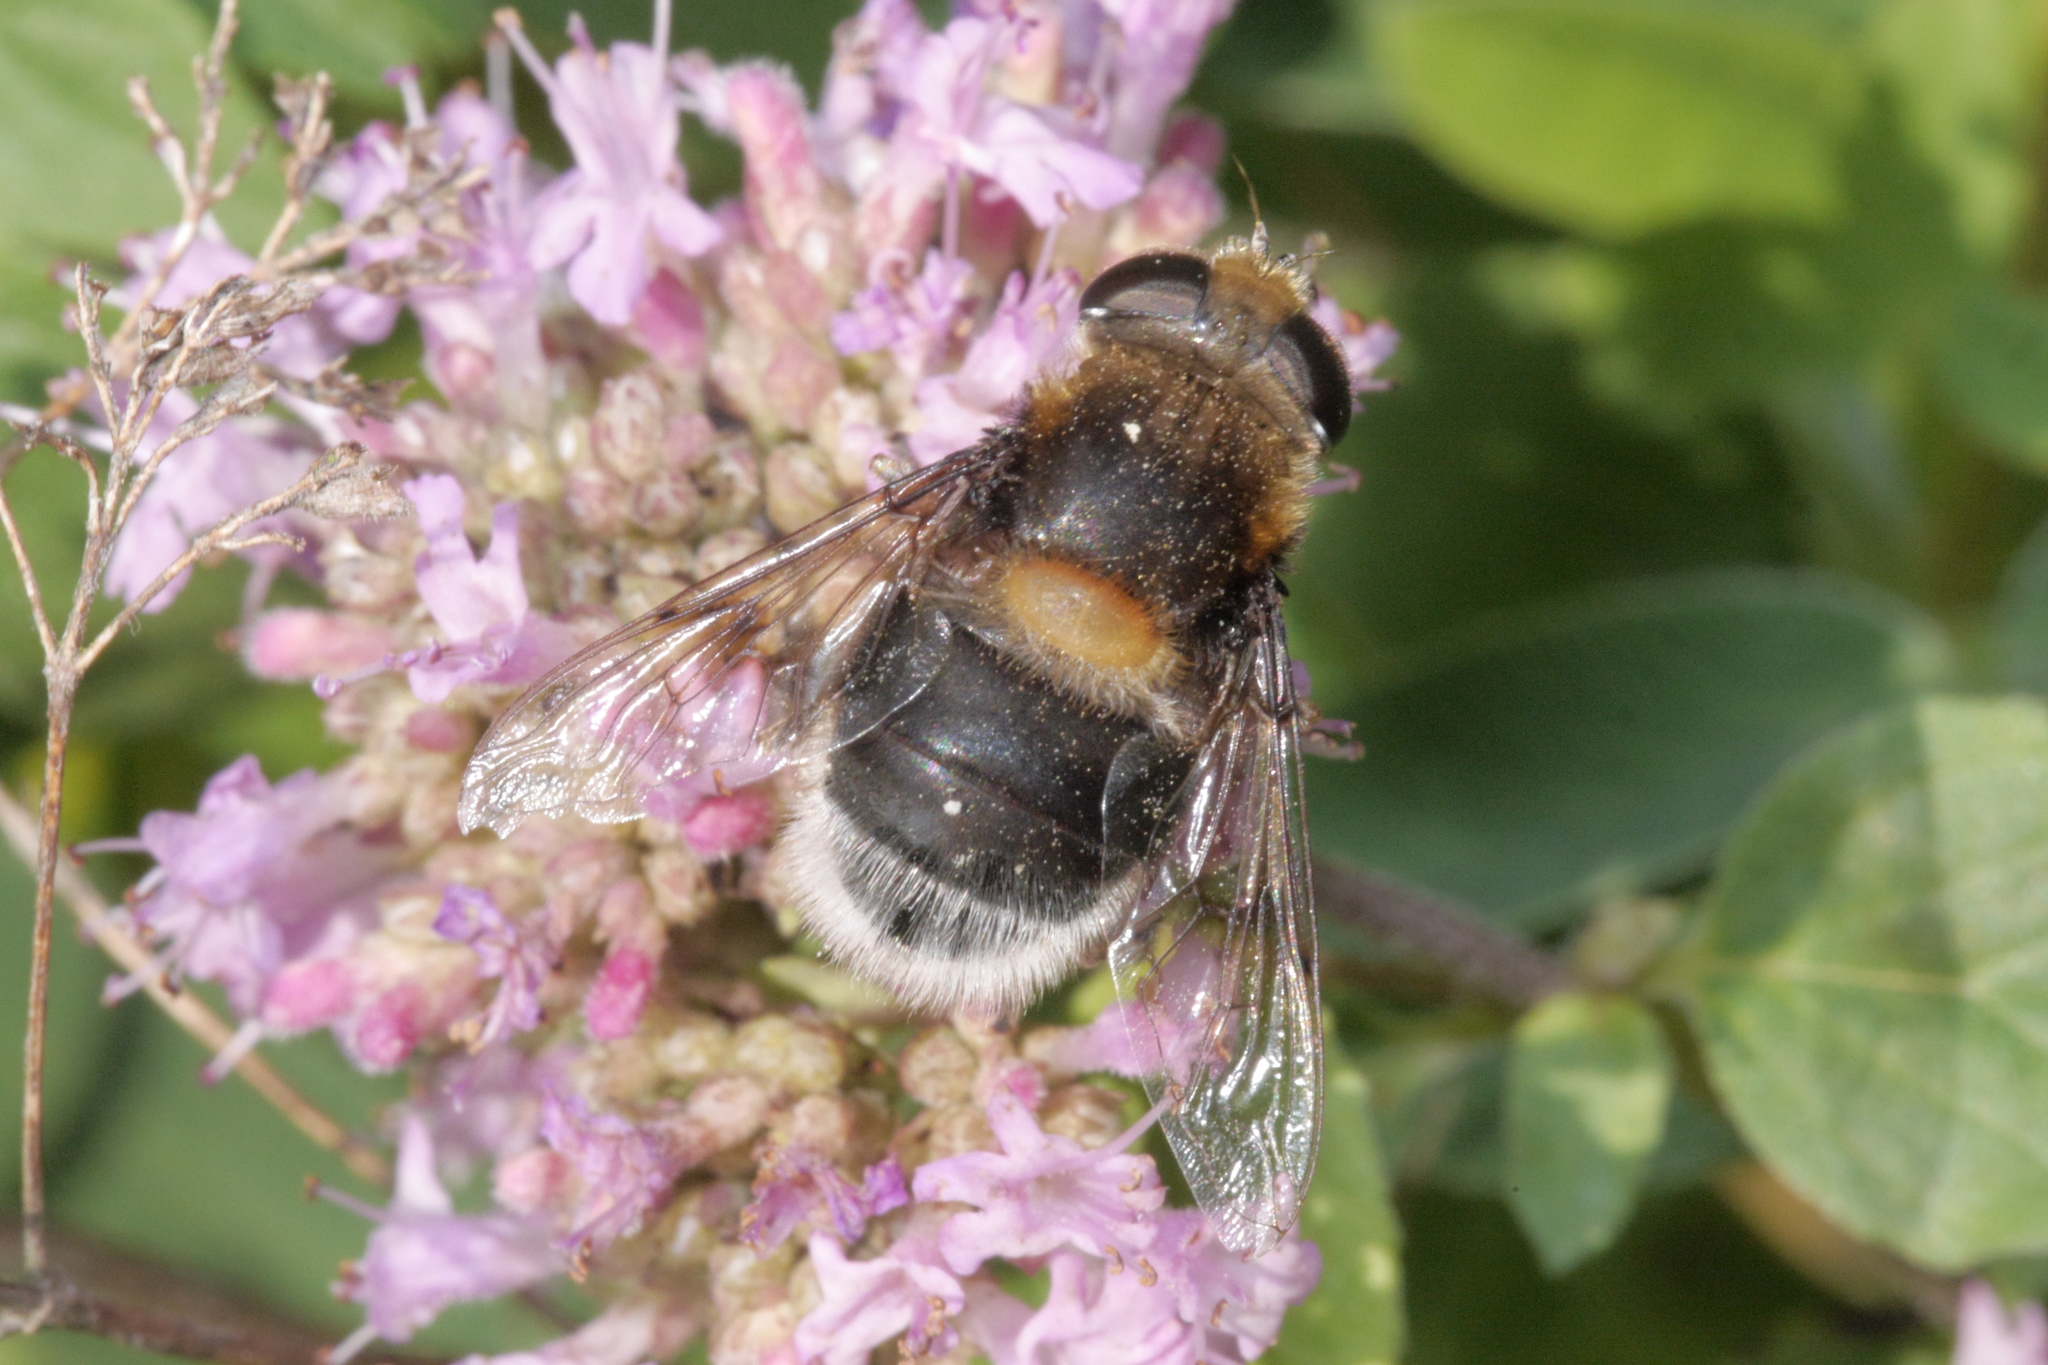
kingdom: Animalia
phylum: Arthropoda
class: Insecta
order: Diptera
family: Syrphidae
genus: Eristalis
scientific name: Eristalis intricaria
